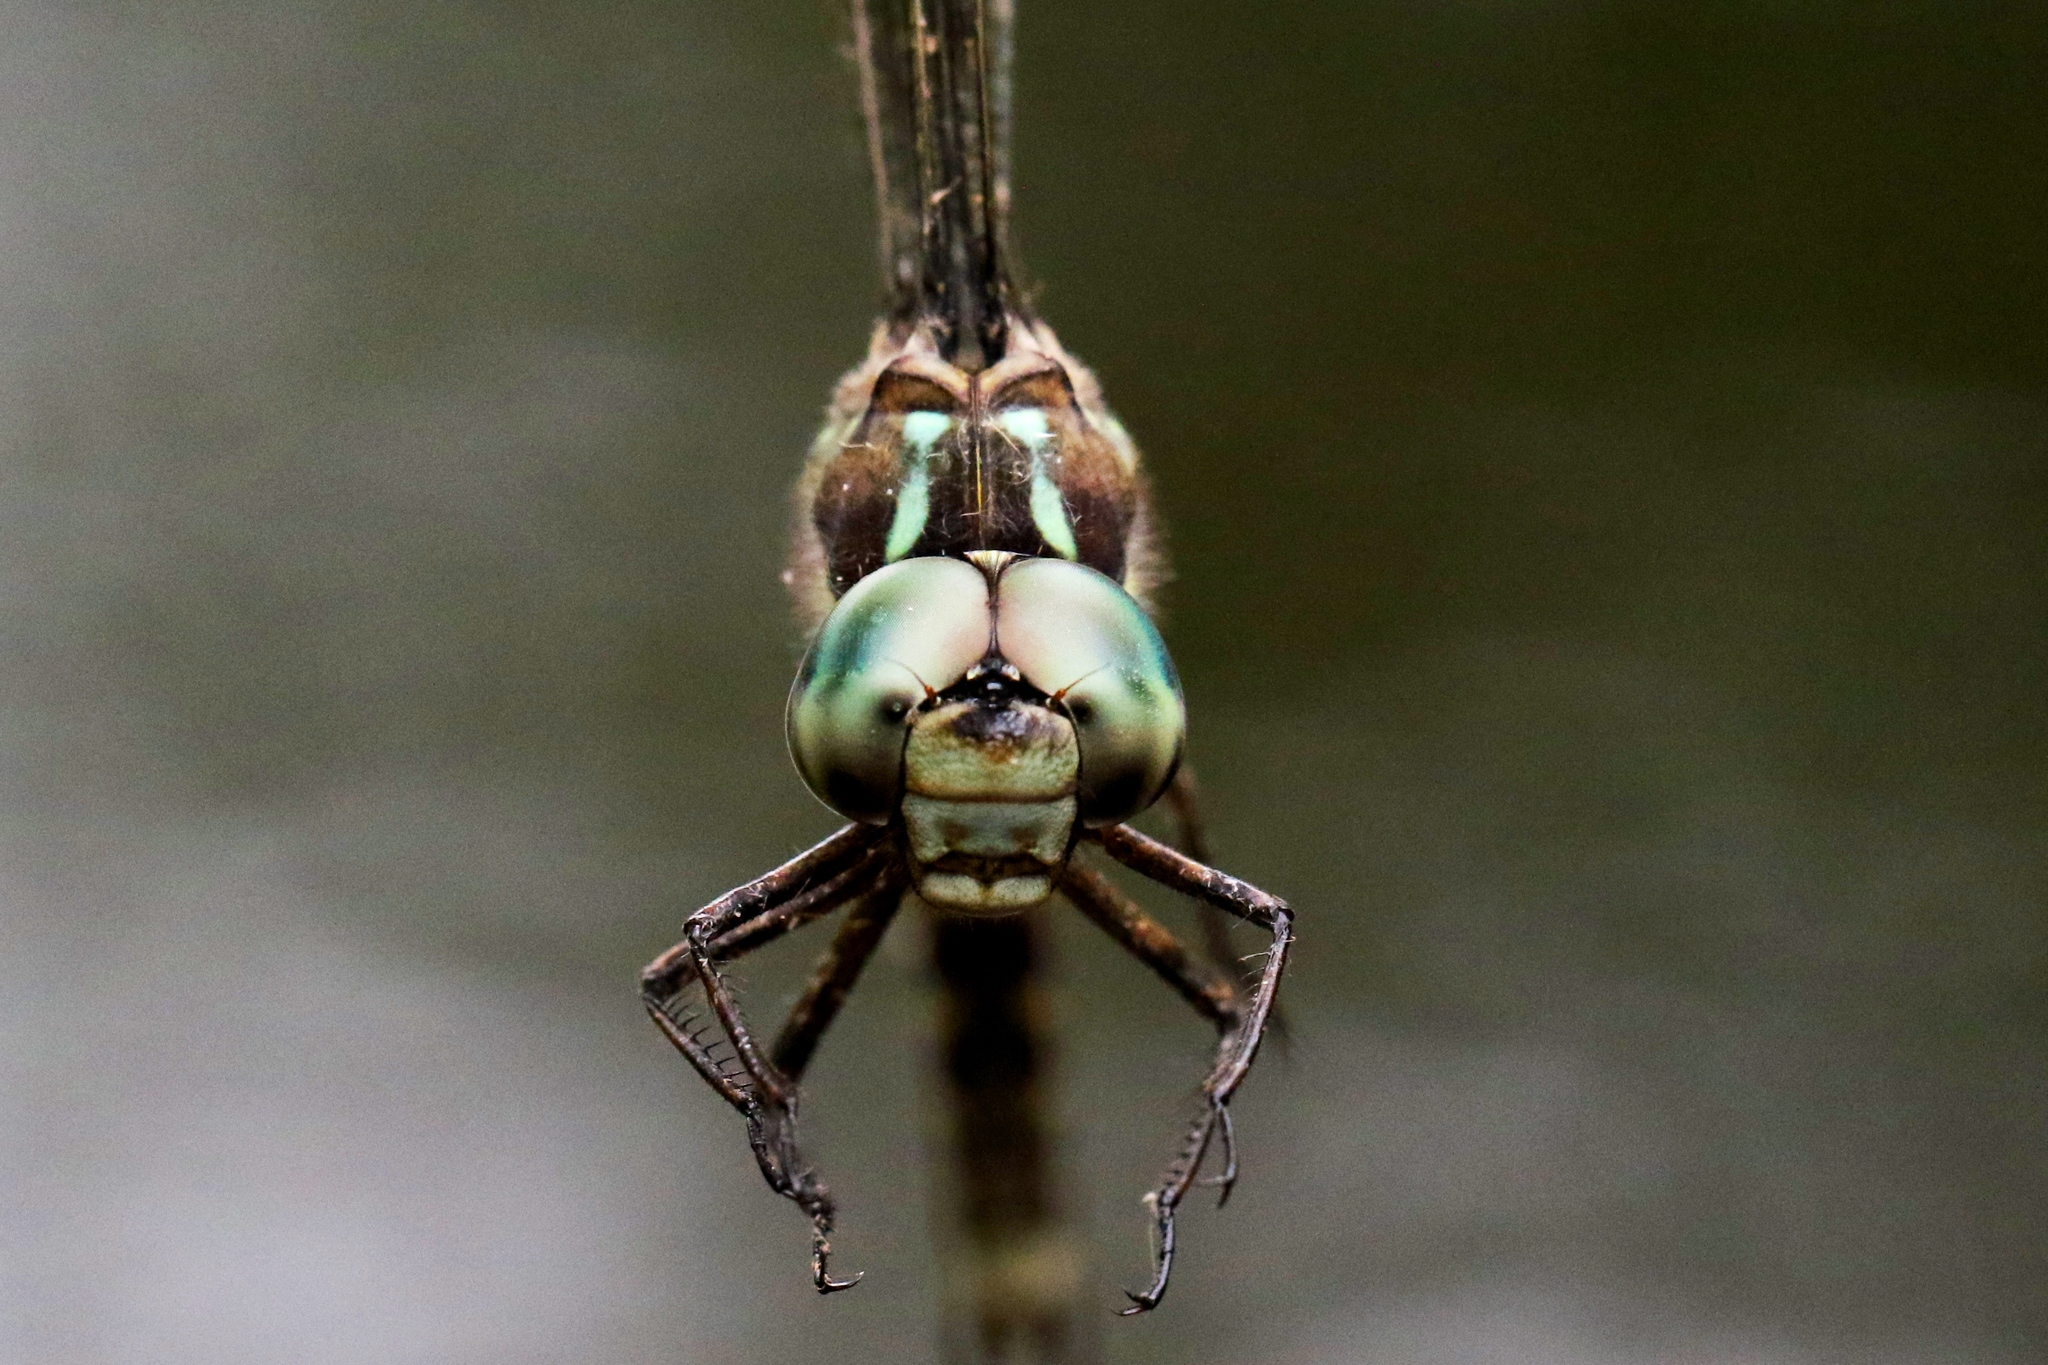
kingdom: Animalia
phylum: Arthropoda
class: Insecta
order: Odonata
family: Aeshnidae
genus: Boyeria
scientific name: Boyeria grafiana
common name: Ocellated darner
